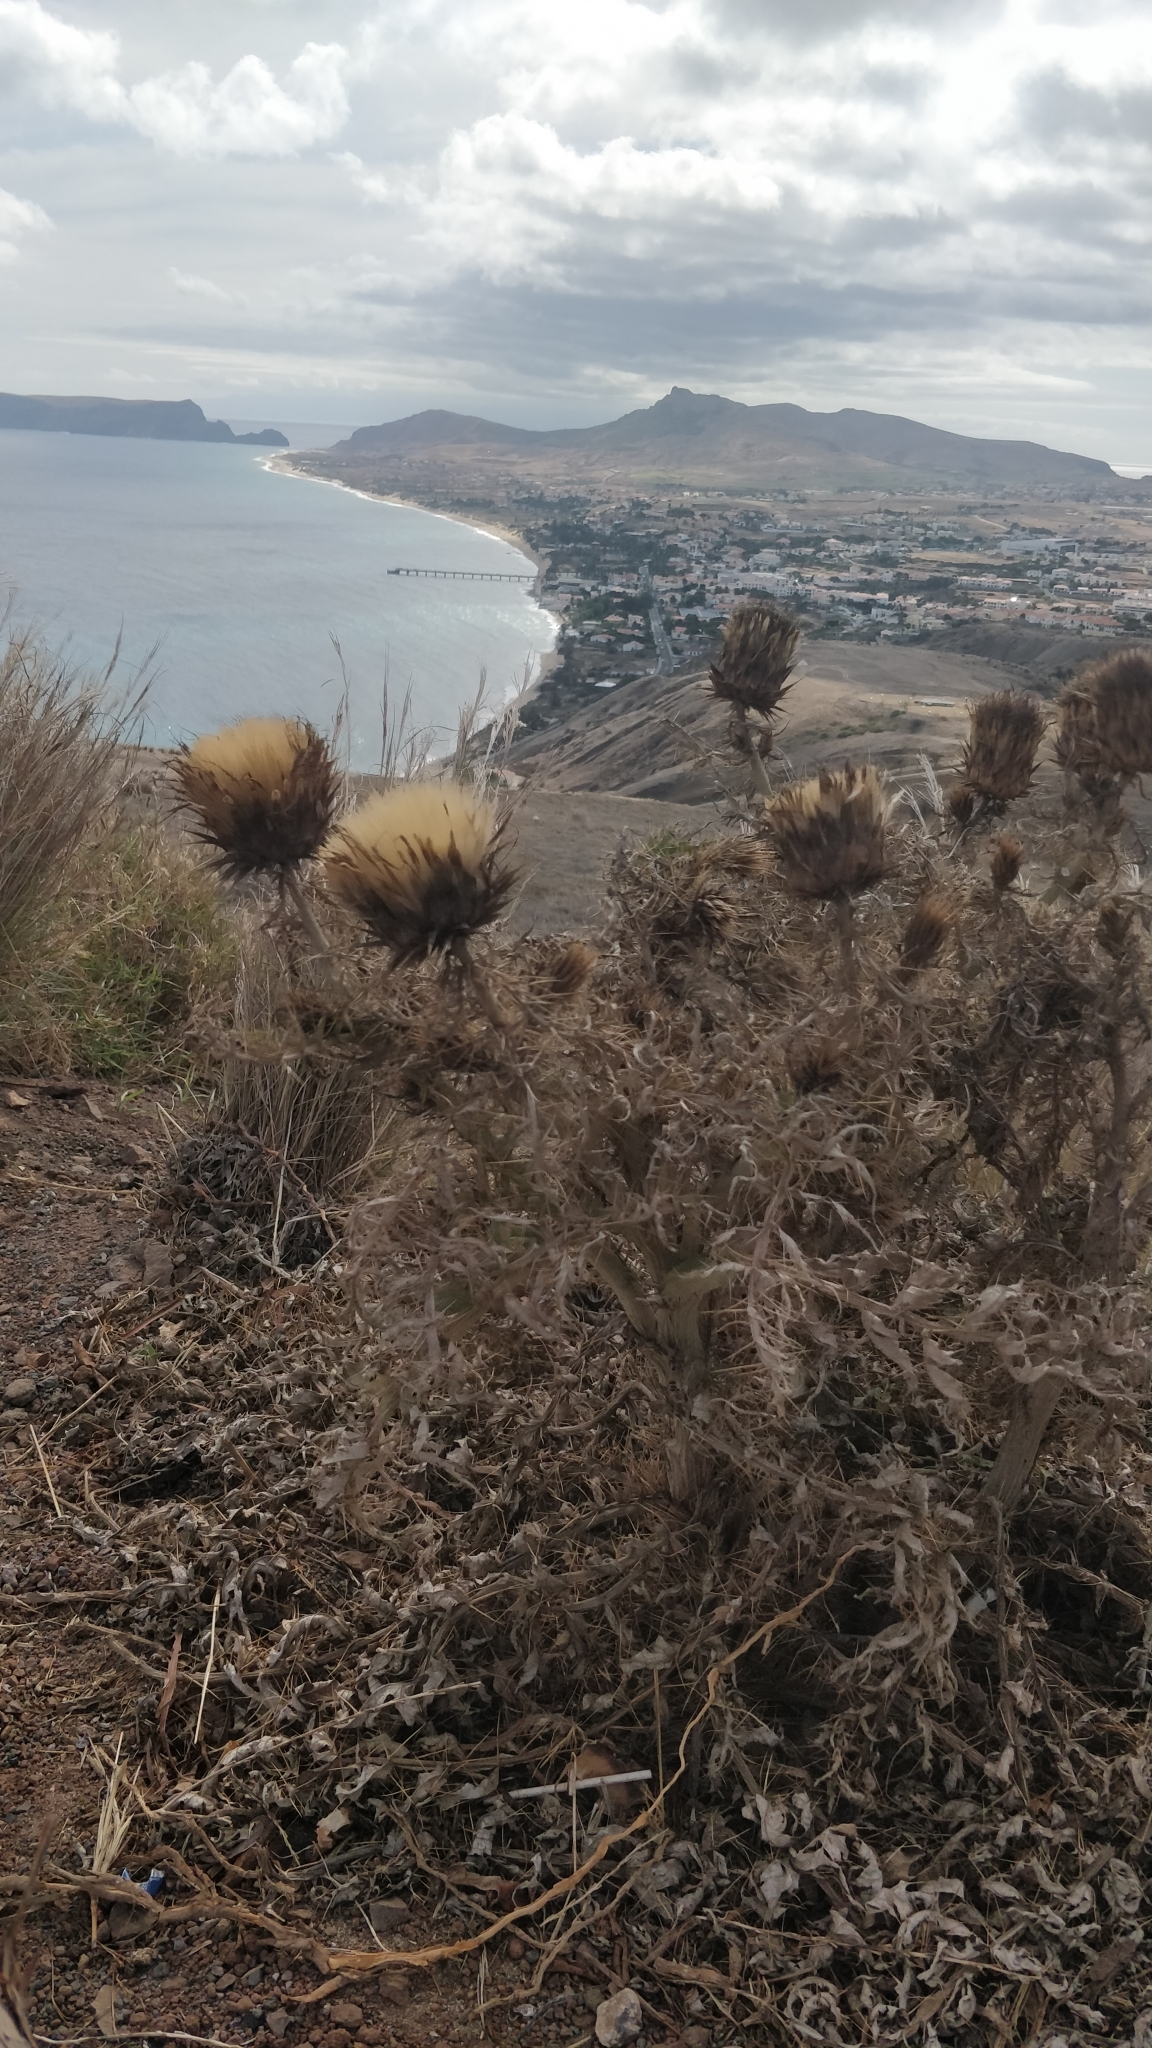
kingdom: Plantae
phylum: Tracheophyta
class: Magnoliopsida
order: Asterales
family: Asteraceae
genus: Cynara
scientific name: Cynara cardunculus
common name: Globe artichoke
